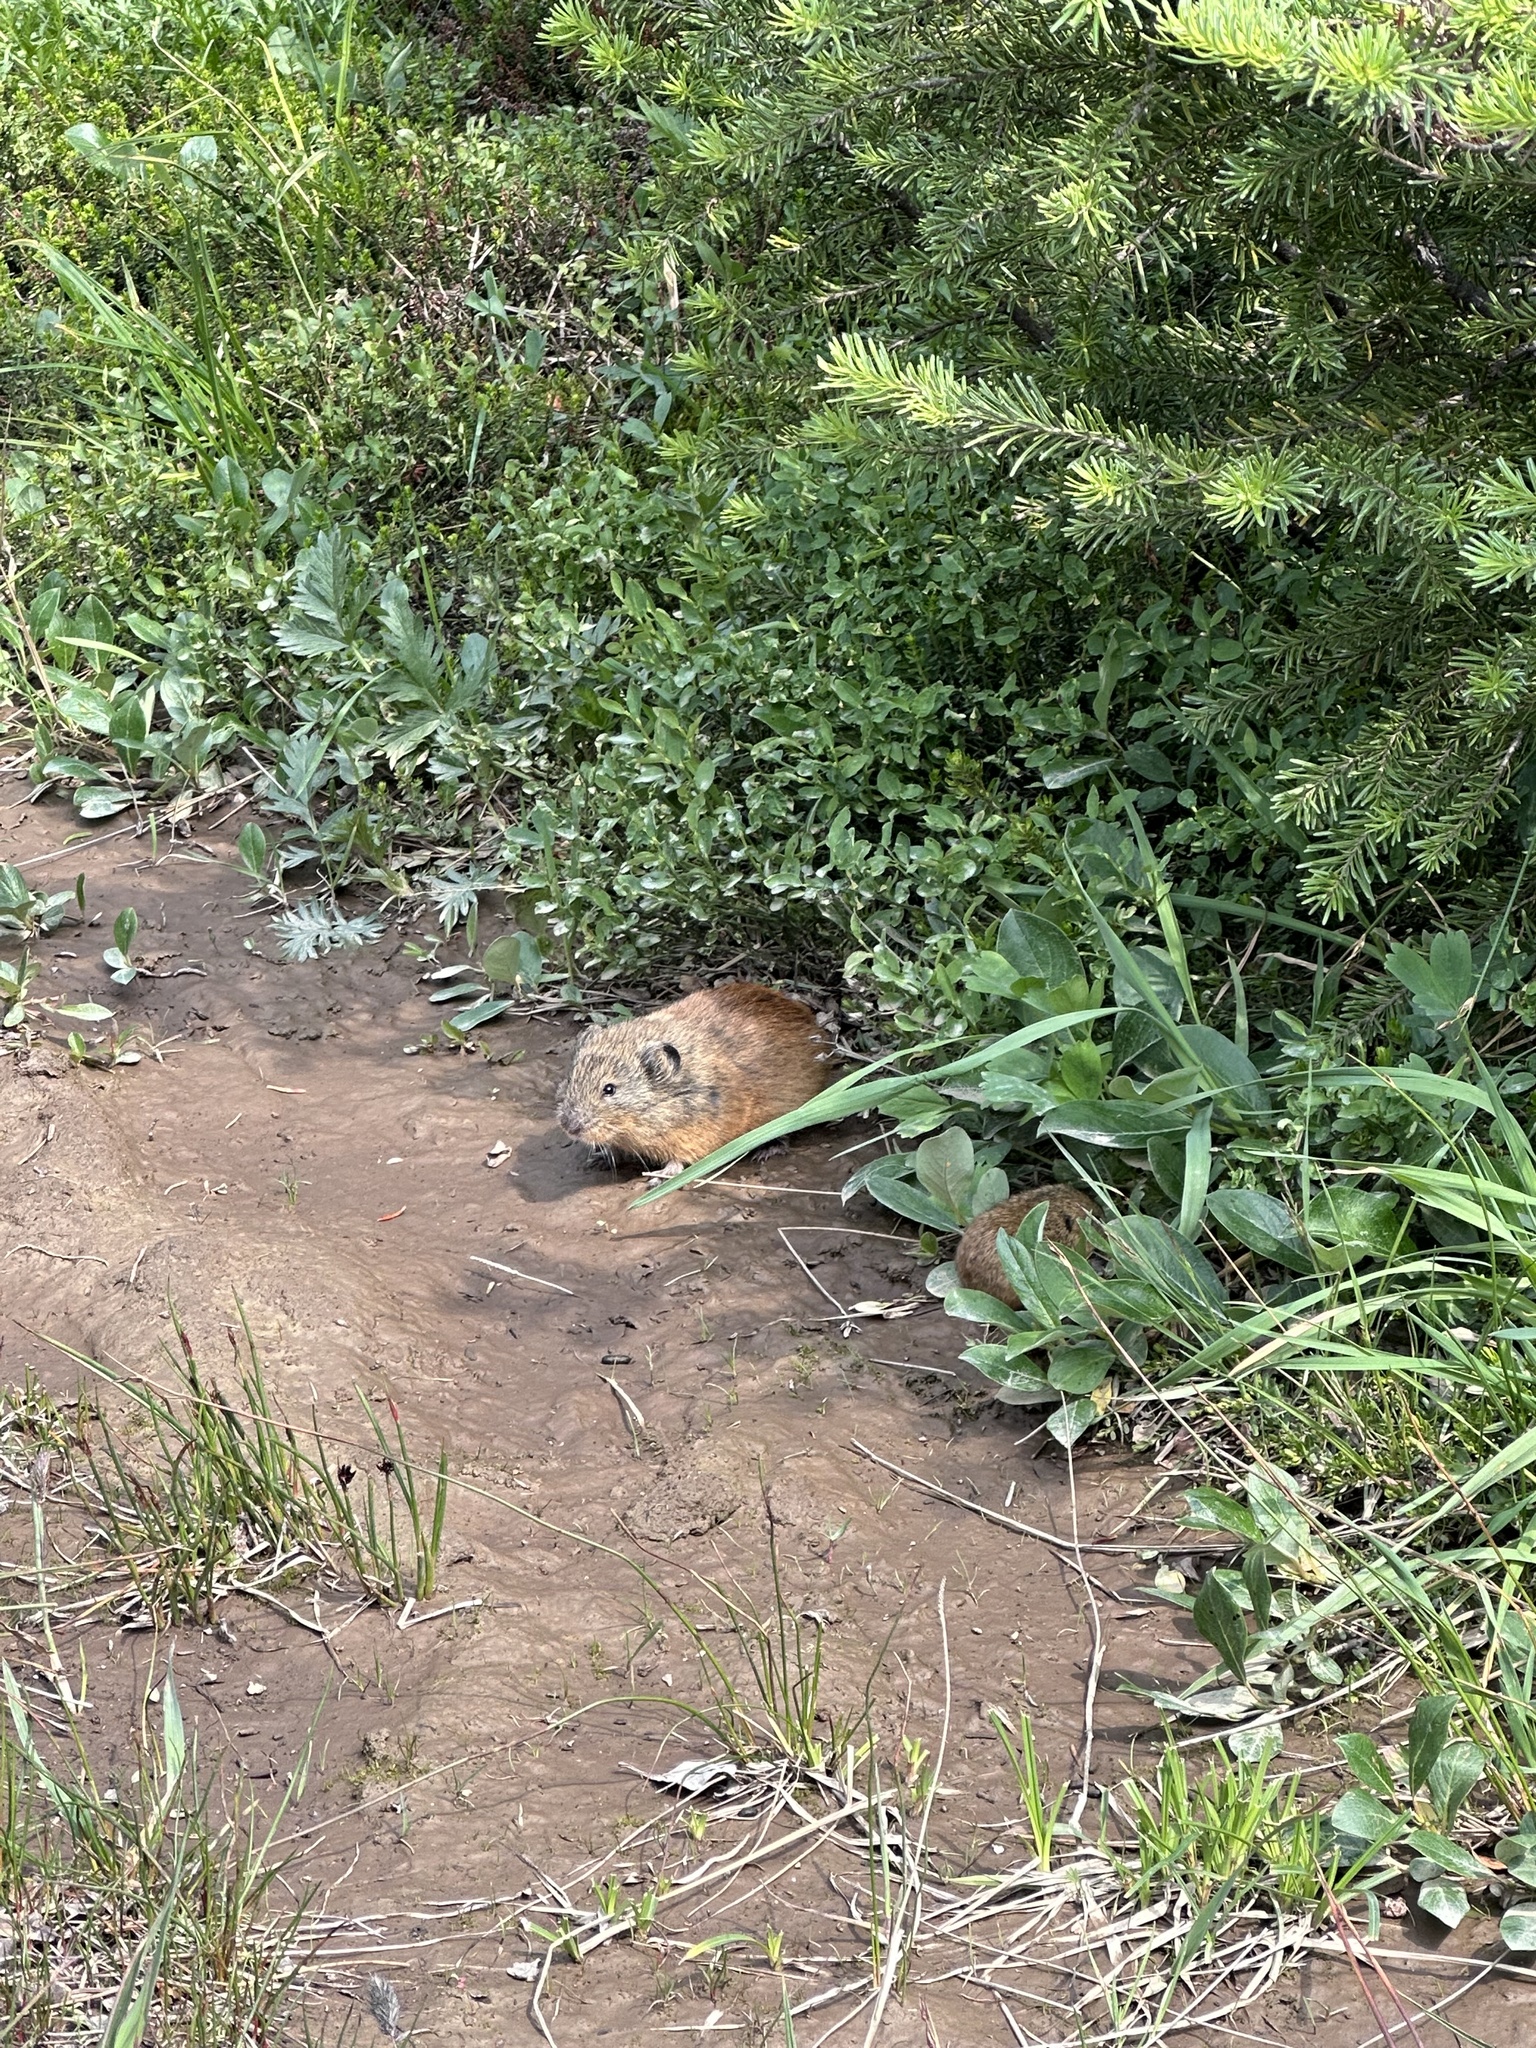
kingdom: Animalia
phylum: Chordata
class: Mammalia
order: Rodentia
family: Cricetidae
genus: Lemmus
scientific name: Lemmus trimucronatus
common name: Brown lemming
